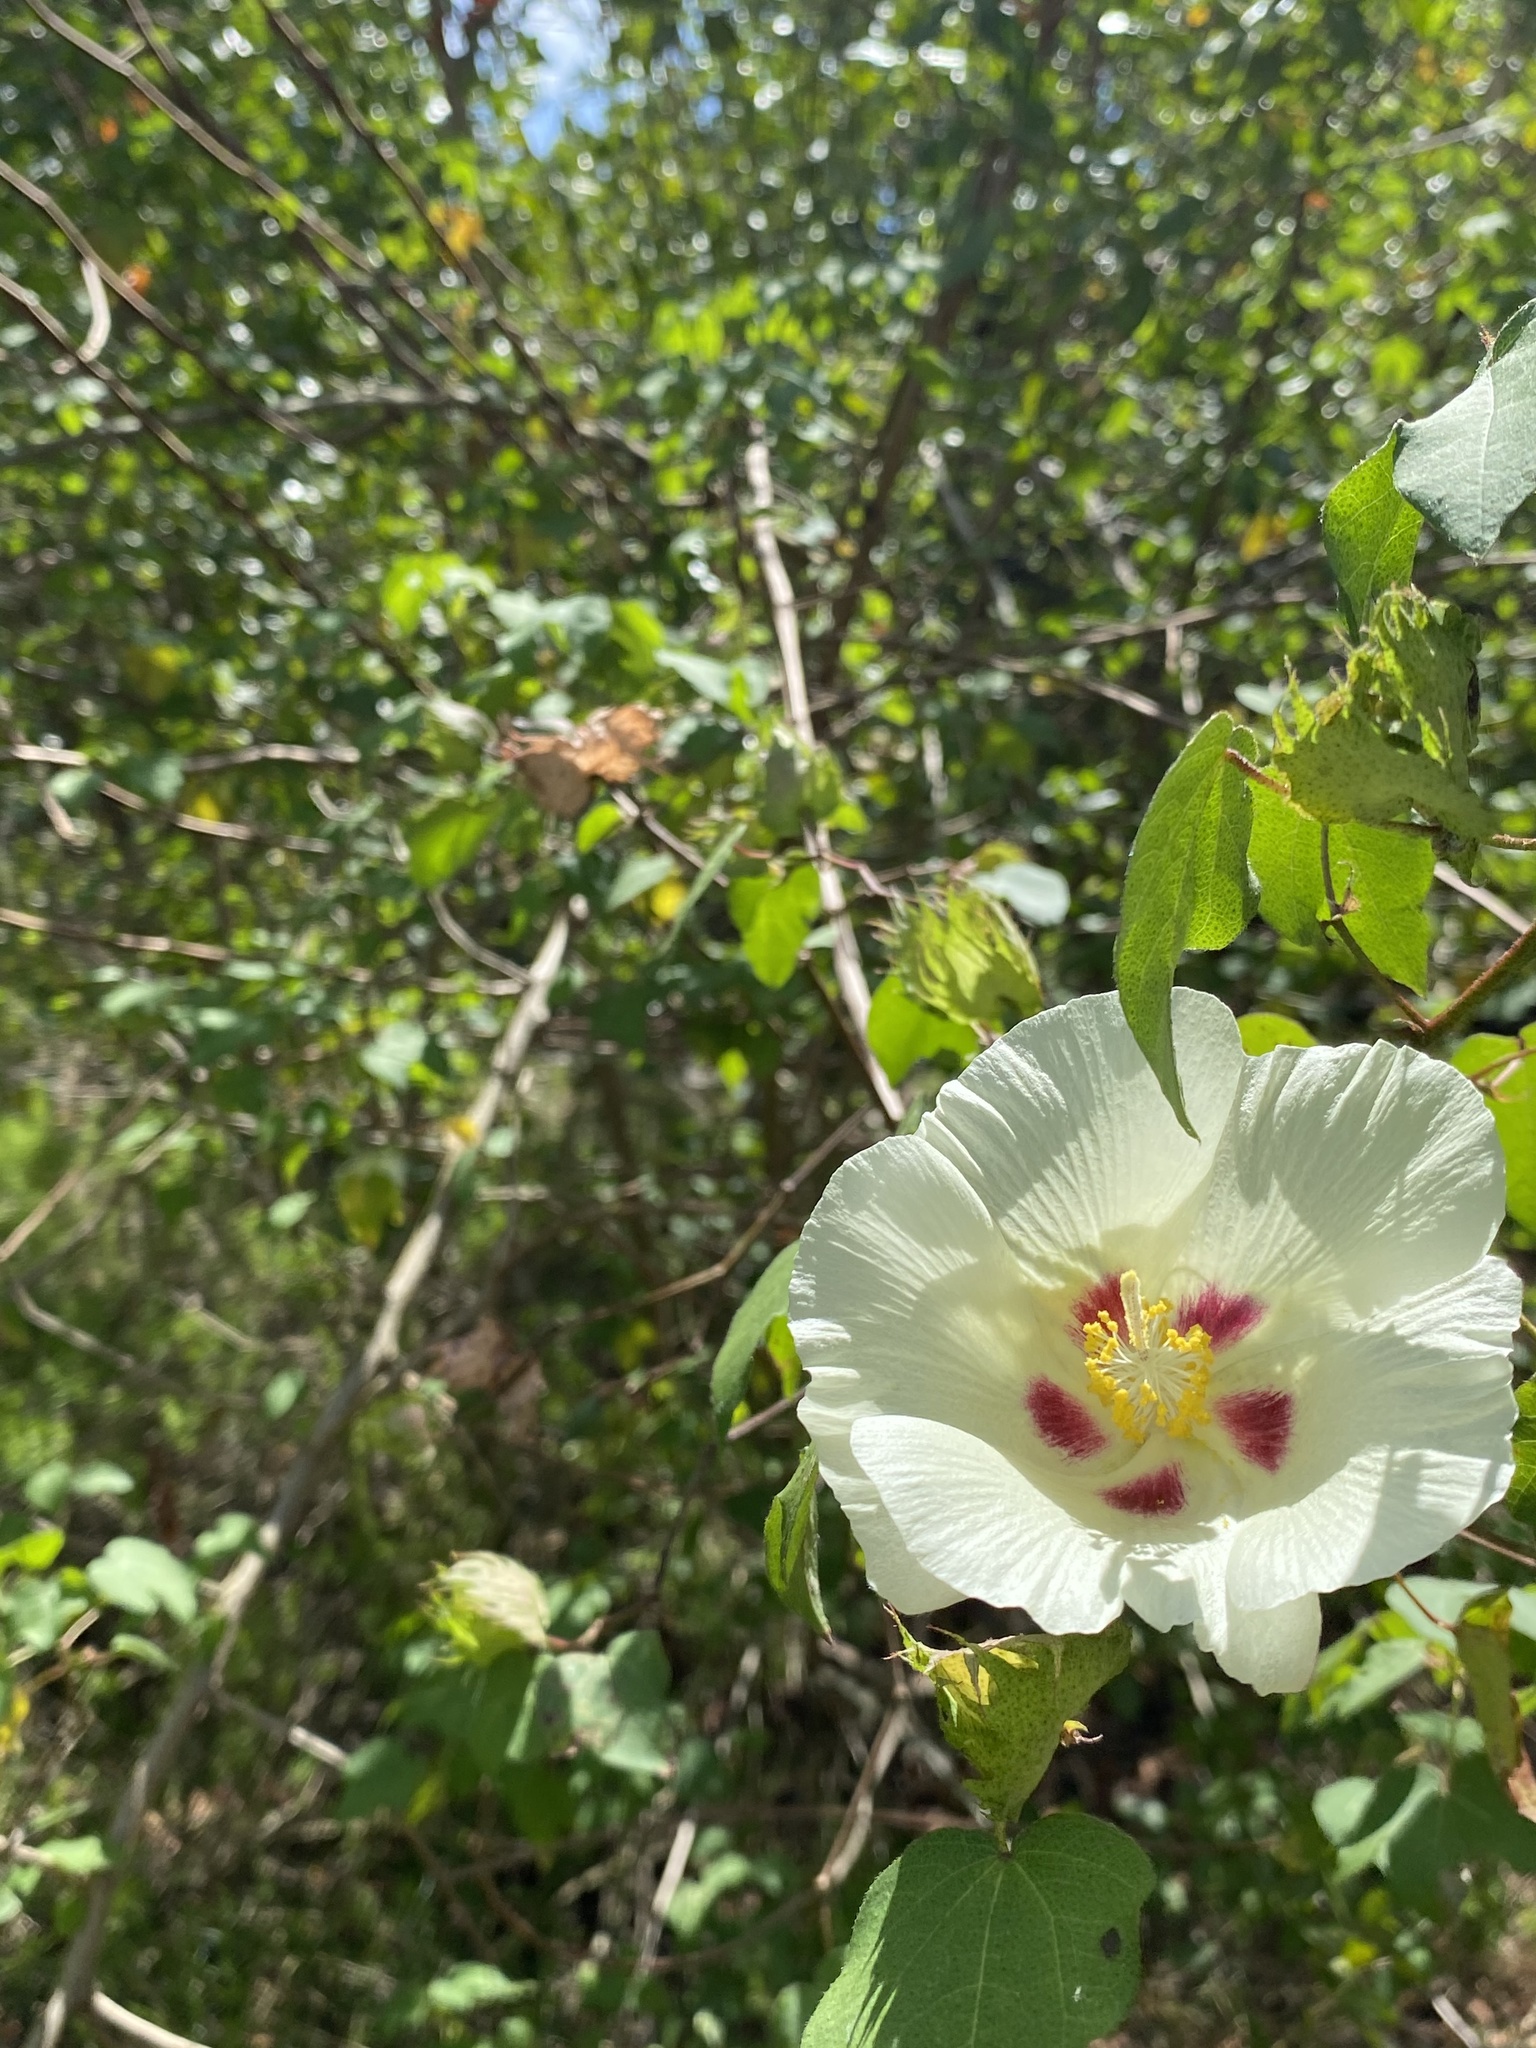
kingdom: Plantae
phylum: Tracheophyta
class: Magnoliopsida
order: Malvales
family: Malvaceae
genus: Gossypium
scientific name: Gossypium hirsutum
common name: Cotton
